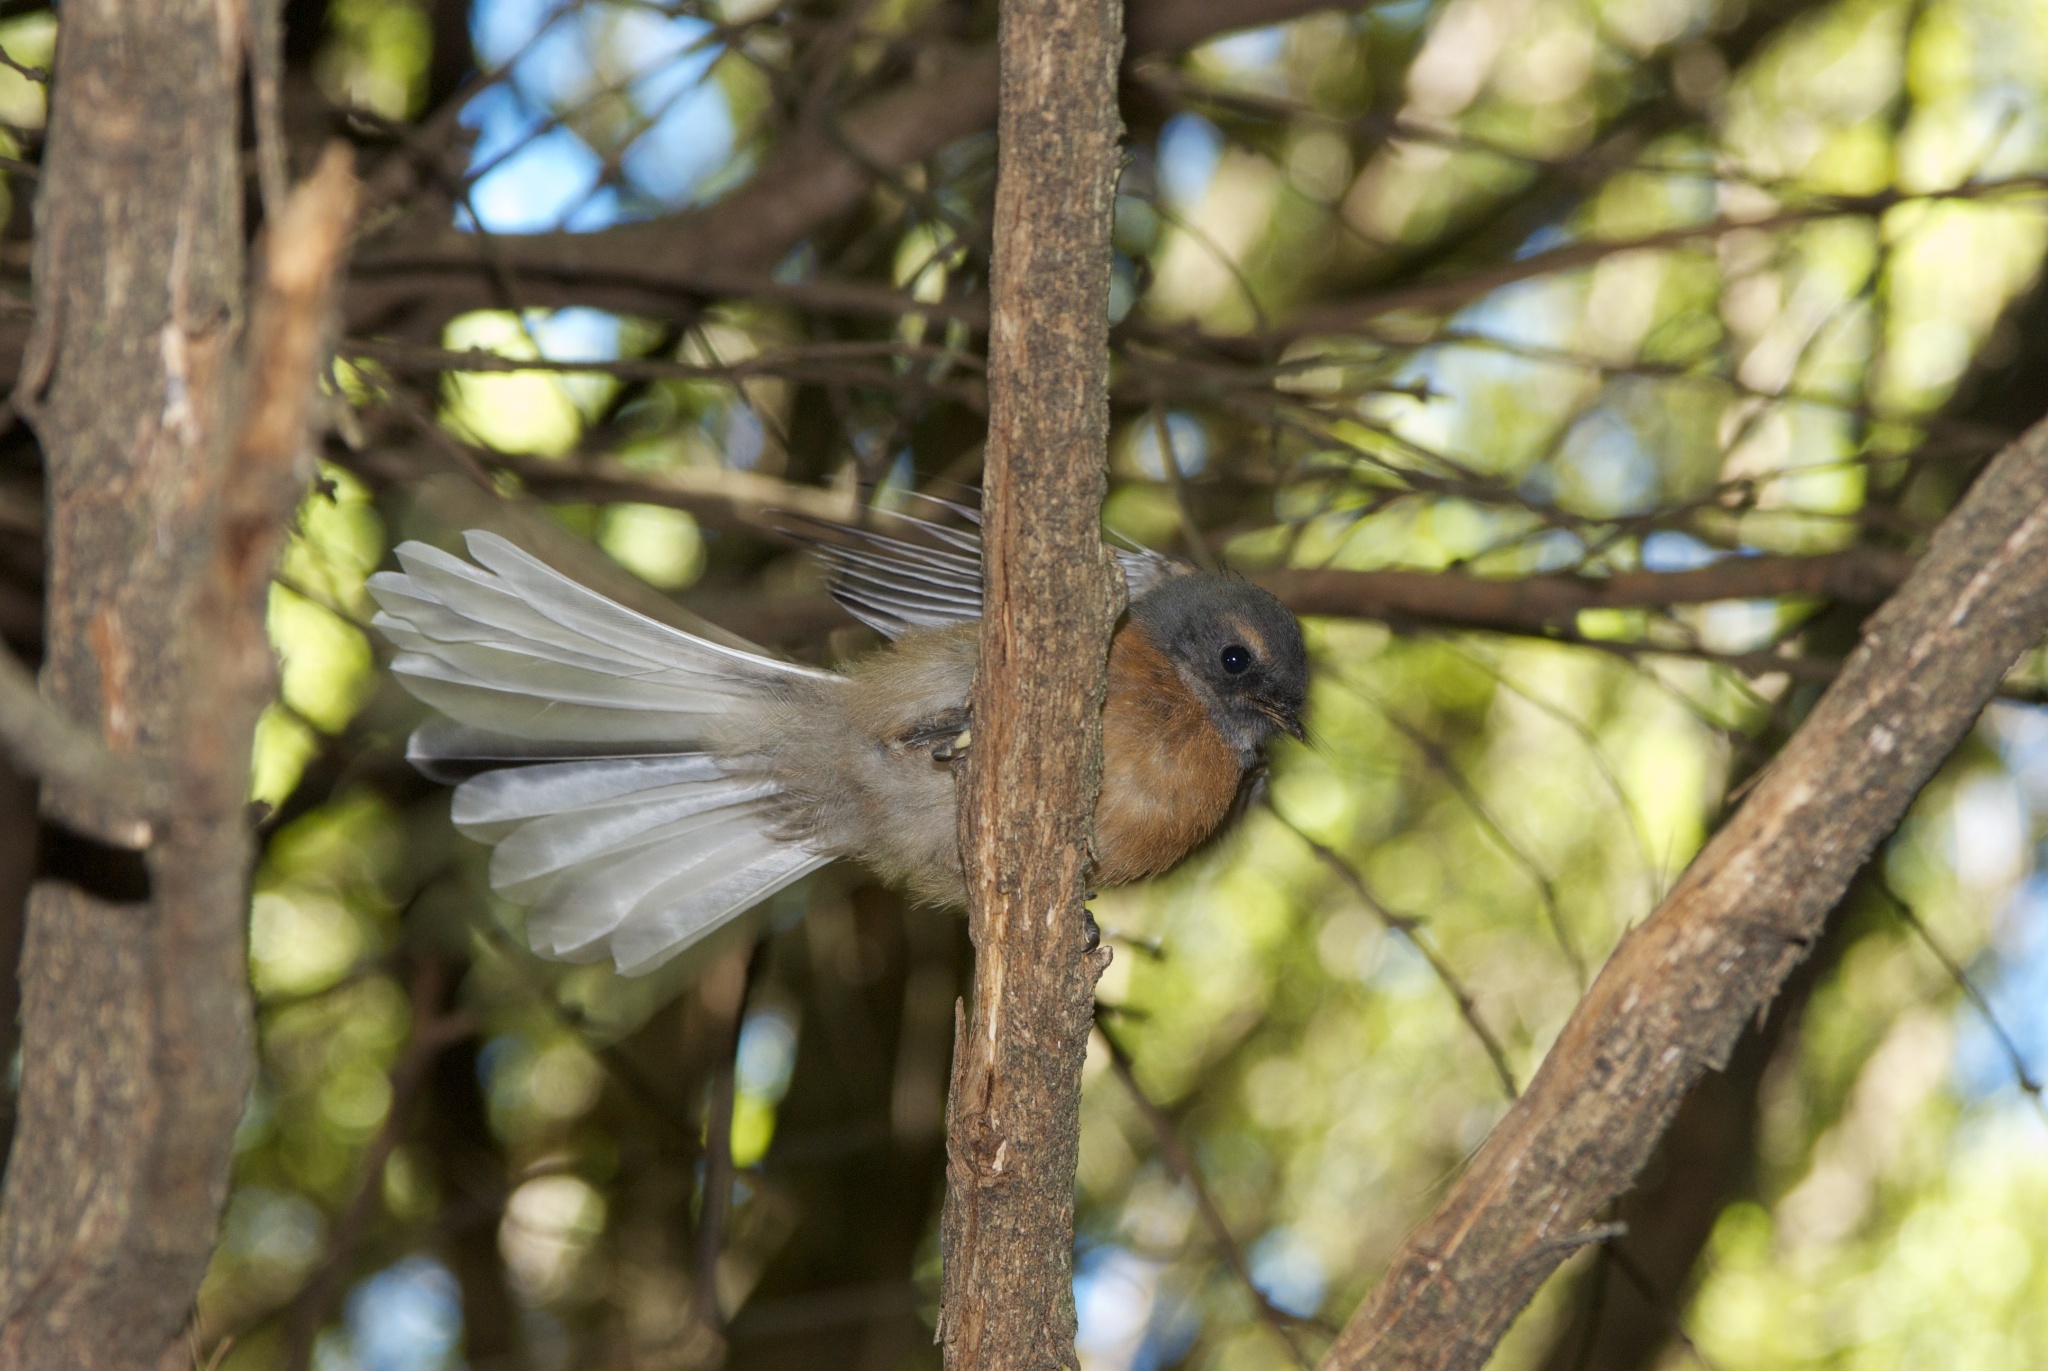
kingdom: Animalia
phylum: Chordata
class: Aves
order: Passeriformes
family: Rhipiduridae
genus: Rhipidura
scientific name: Rhipidura fuliginosa
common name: New zealand fantail
